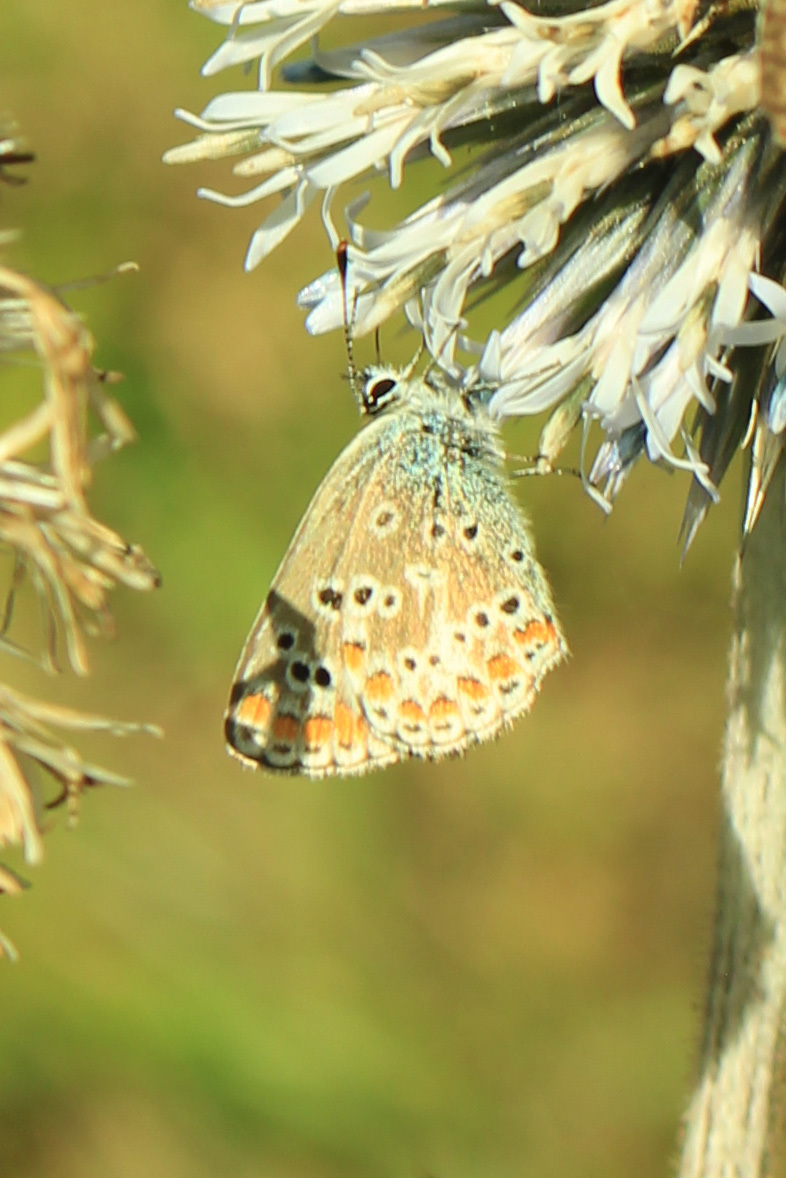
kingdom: Animalia
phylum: Arthropoda
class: Insecta
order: Lepidoptera
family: Lycaenidae
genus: Aricia
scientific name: Aricia agestis
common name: Brown argus
